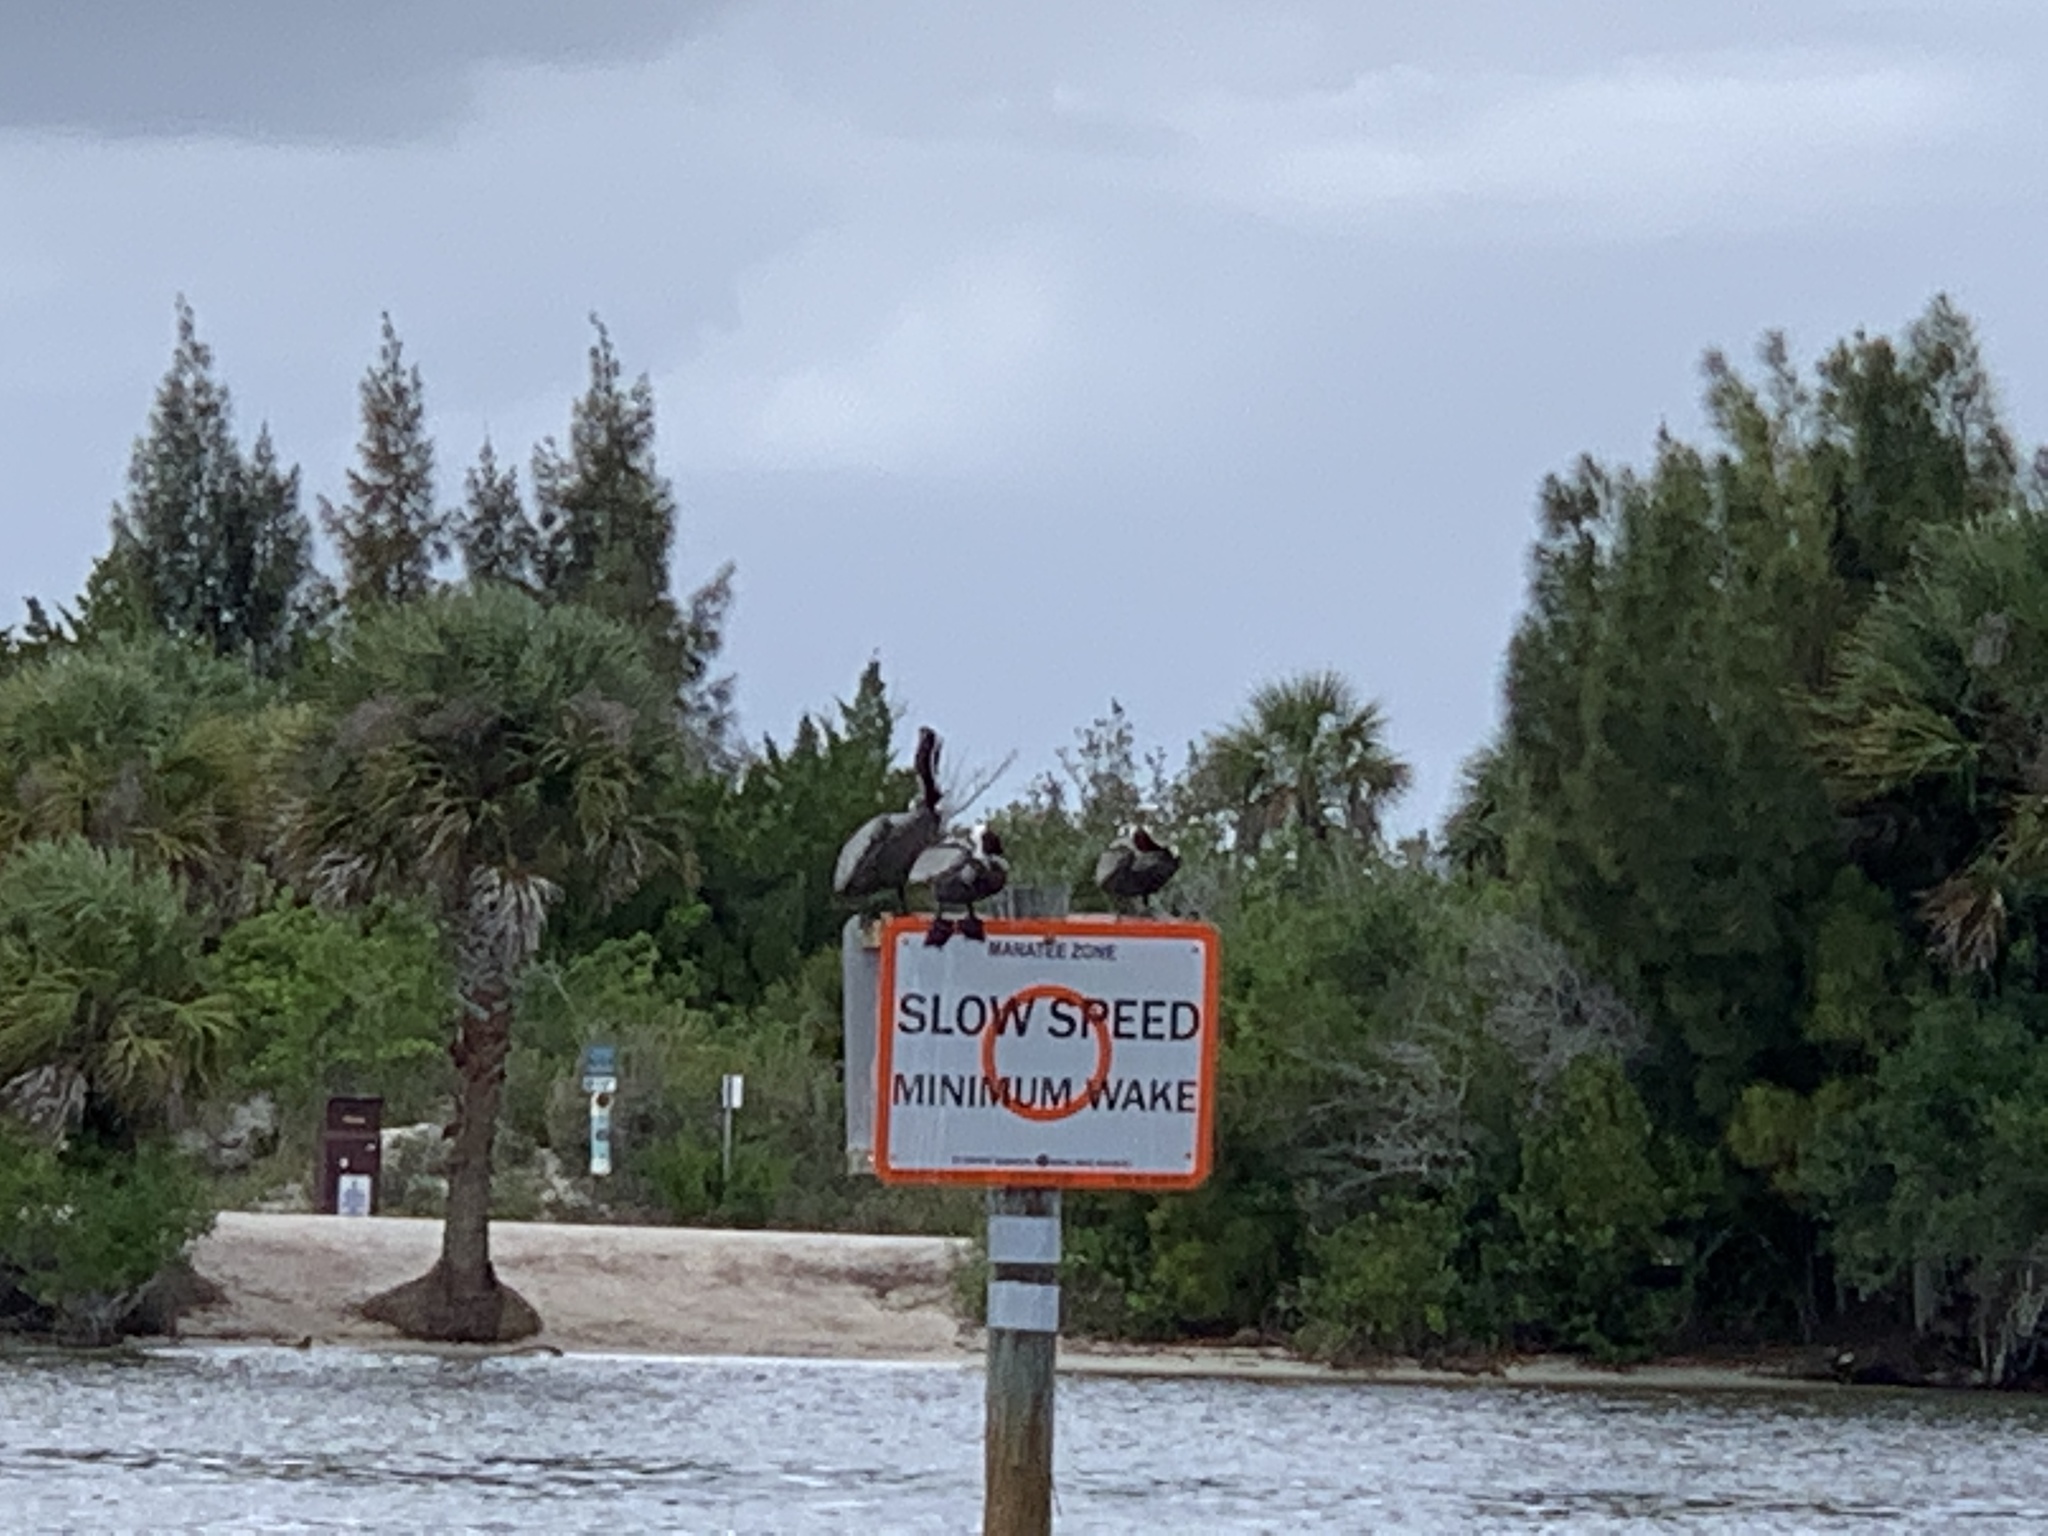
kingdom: Animalia
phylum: Chordata
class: Aves
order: Pelecaniformes
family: Pelecanidae
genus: Pelecanus
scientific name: Pelecanus occidentalis
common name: Brown pelican
